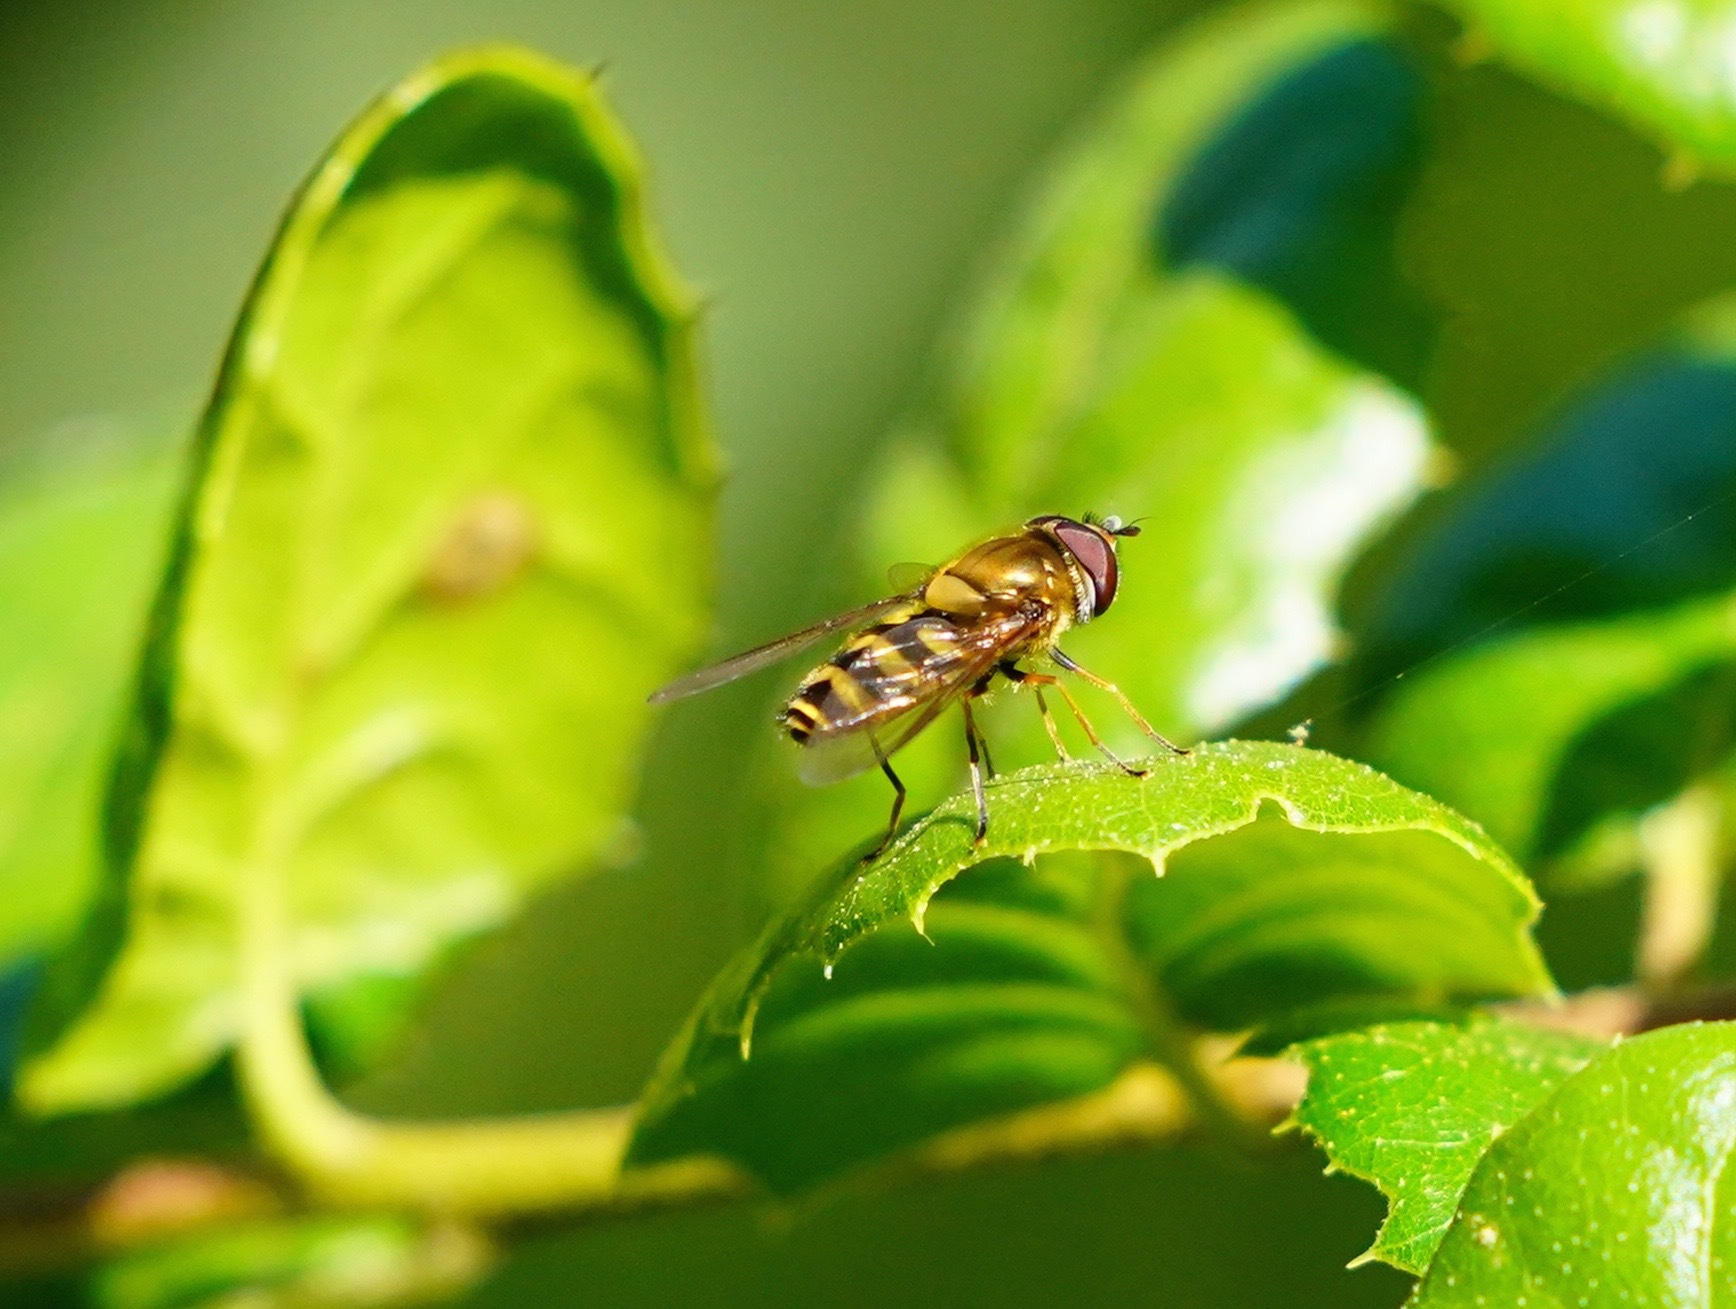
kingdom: Animalia
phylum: Arthropoda
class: Insecta
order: Diptera
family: Syrphidae
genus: Syrphus
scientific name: Syrphus
